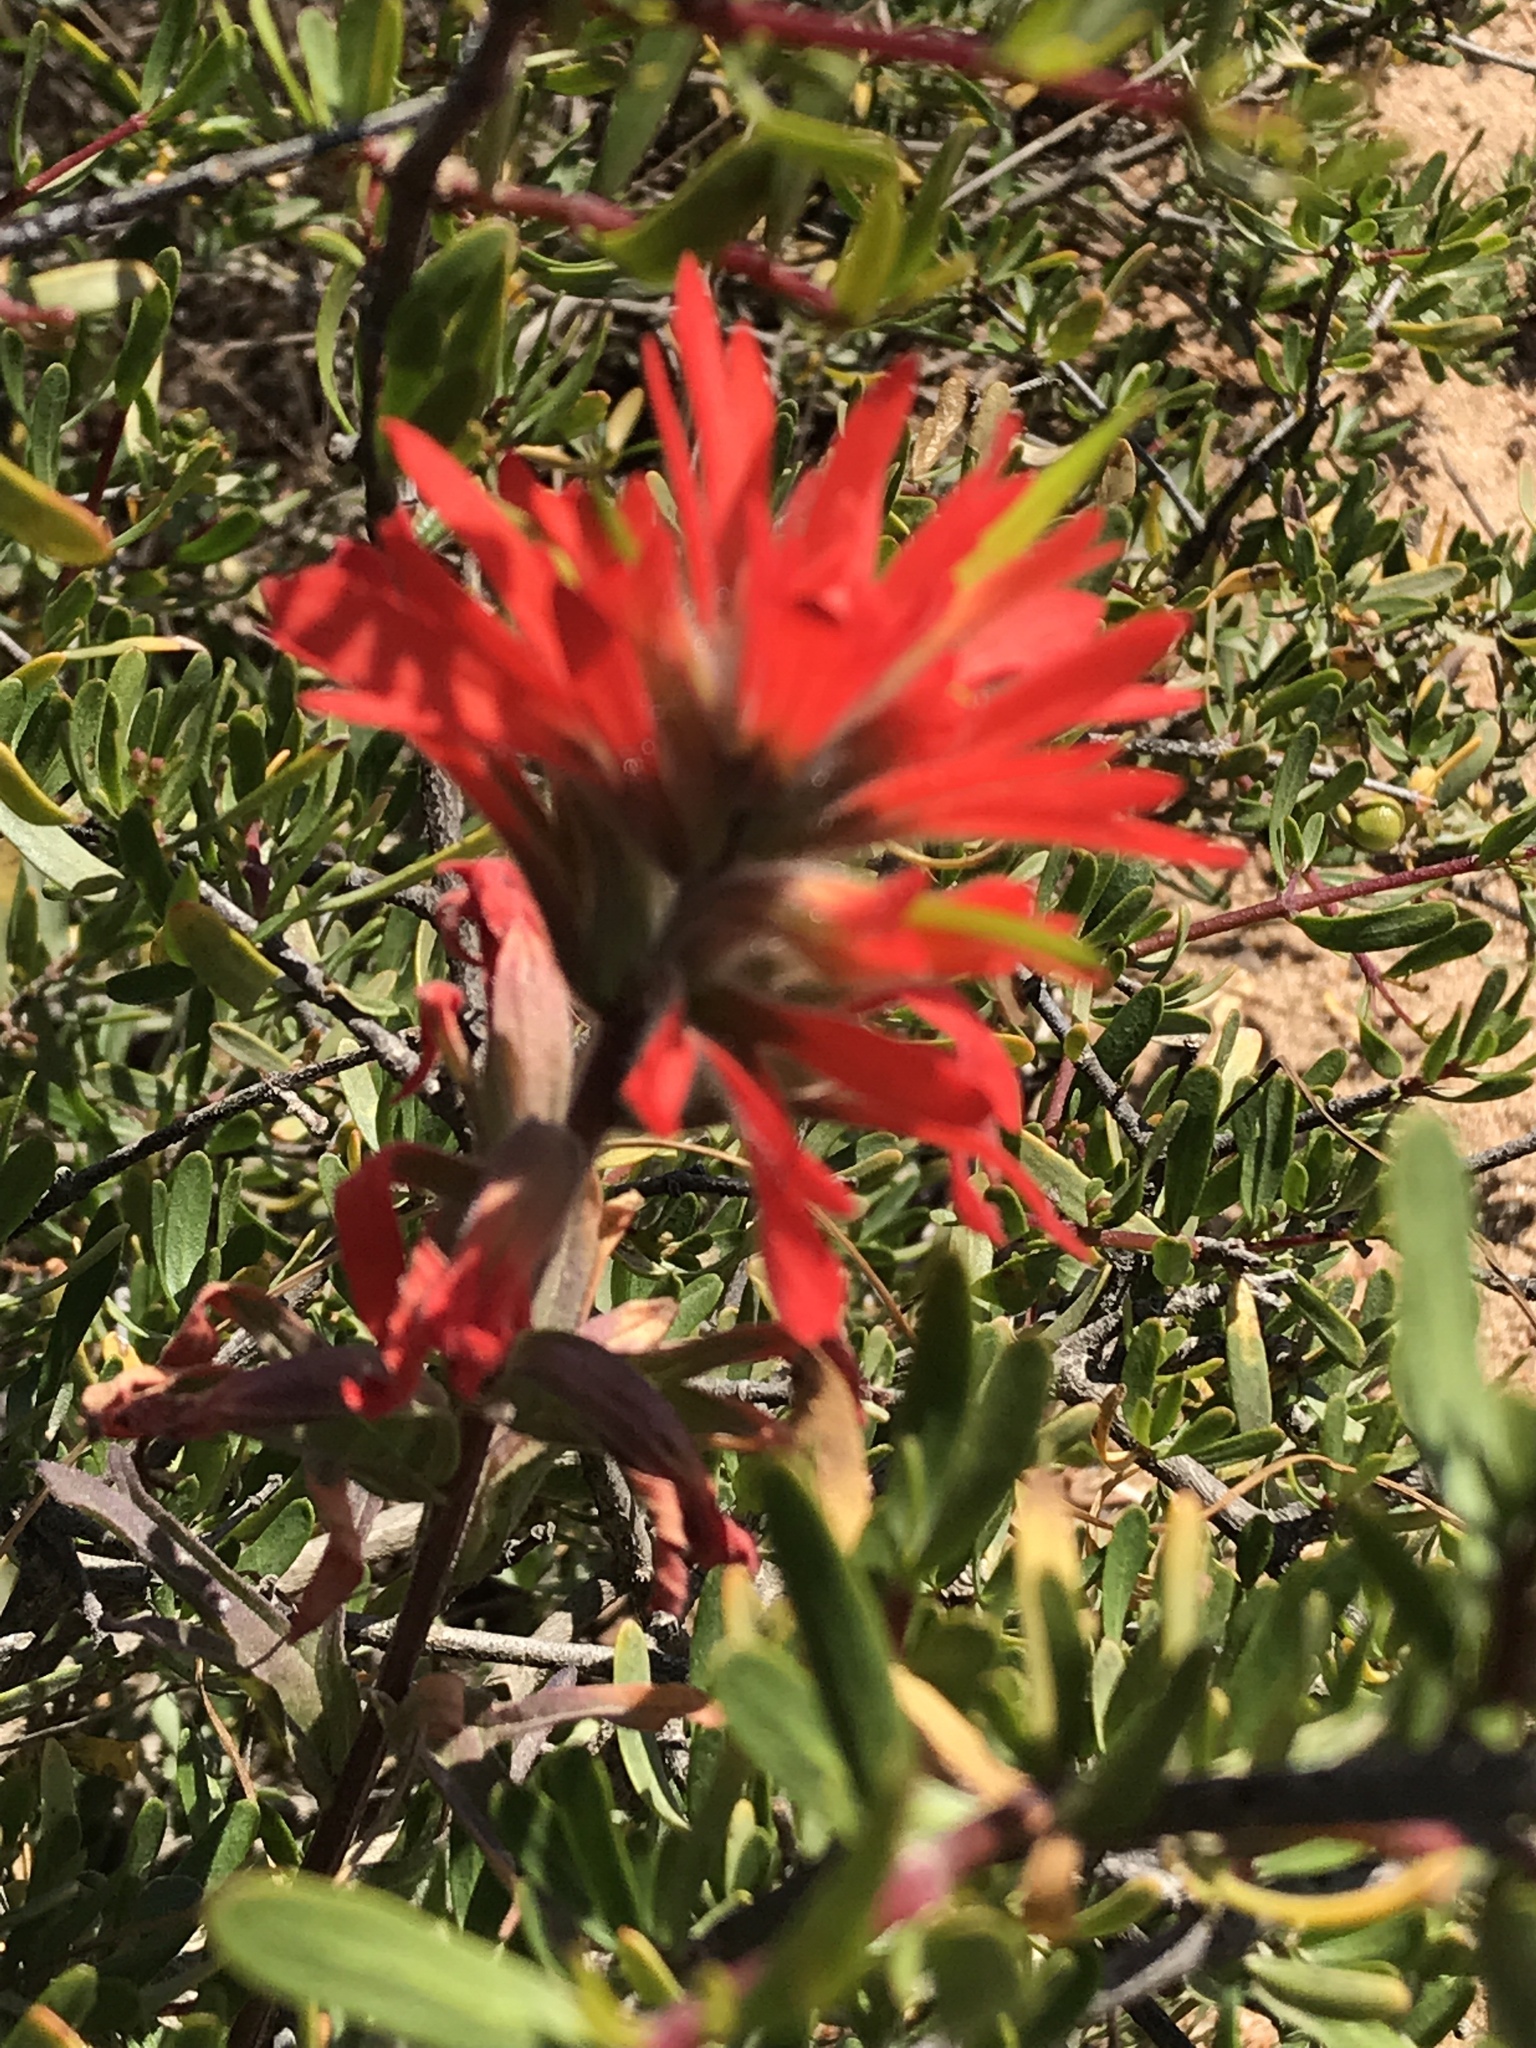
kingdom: Plantae
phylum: Tracheophyta
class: Magnoliopsida
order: Lamiales
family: Orobanchaceae
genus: Castilleja
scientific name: Castilleja affinis
